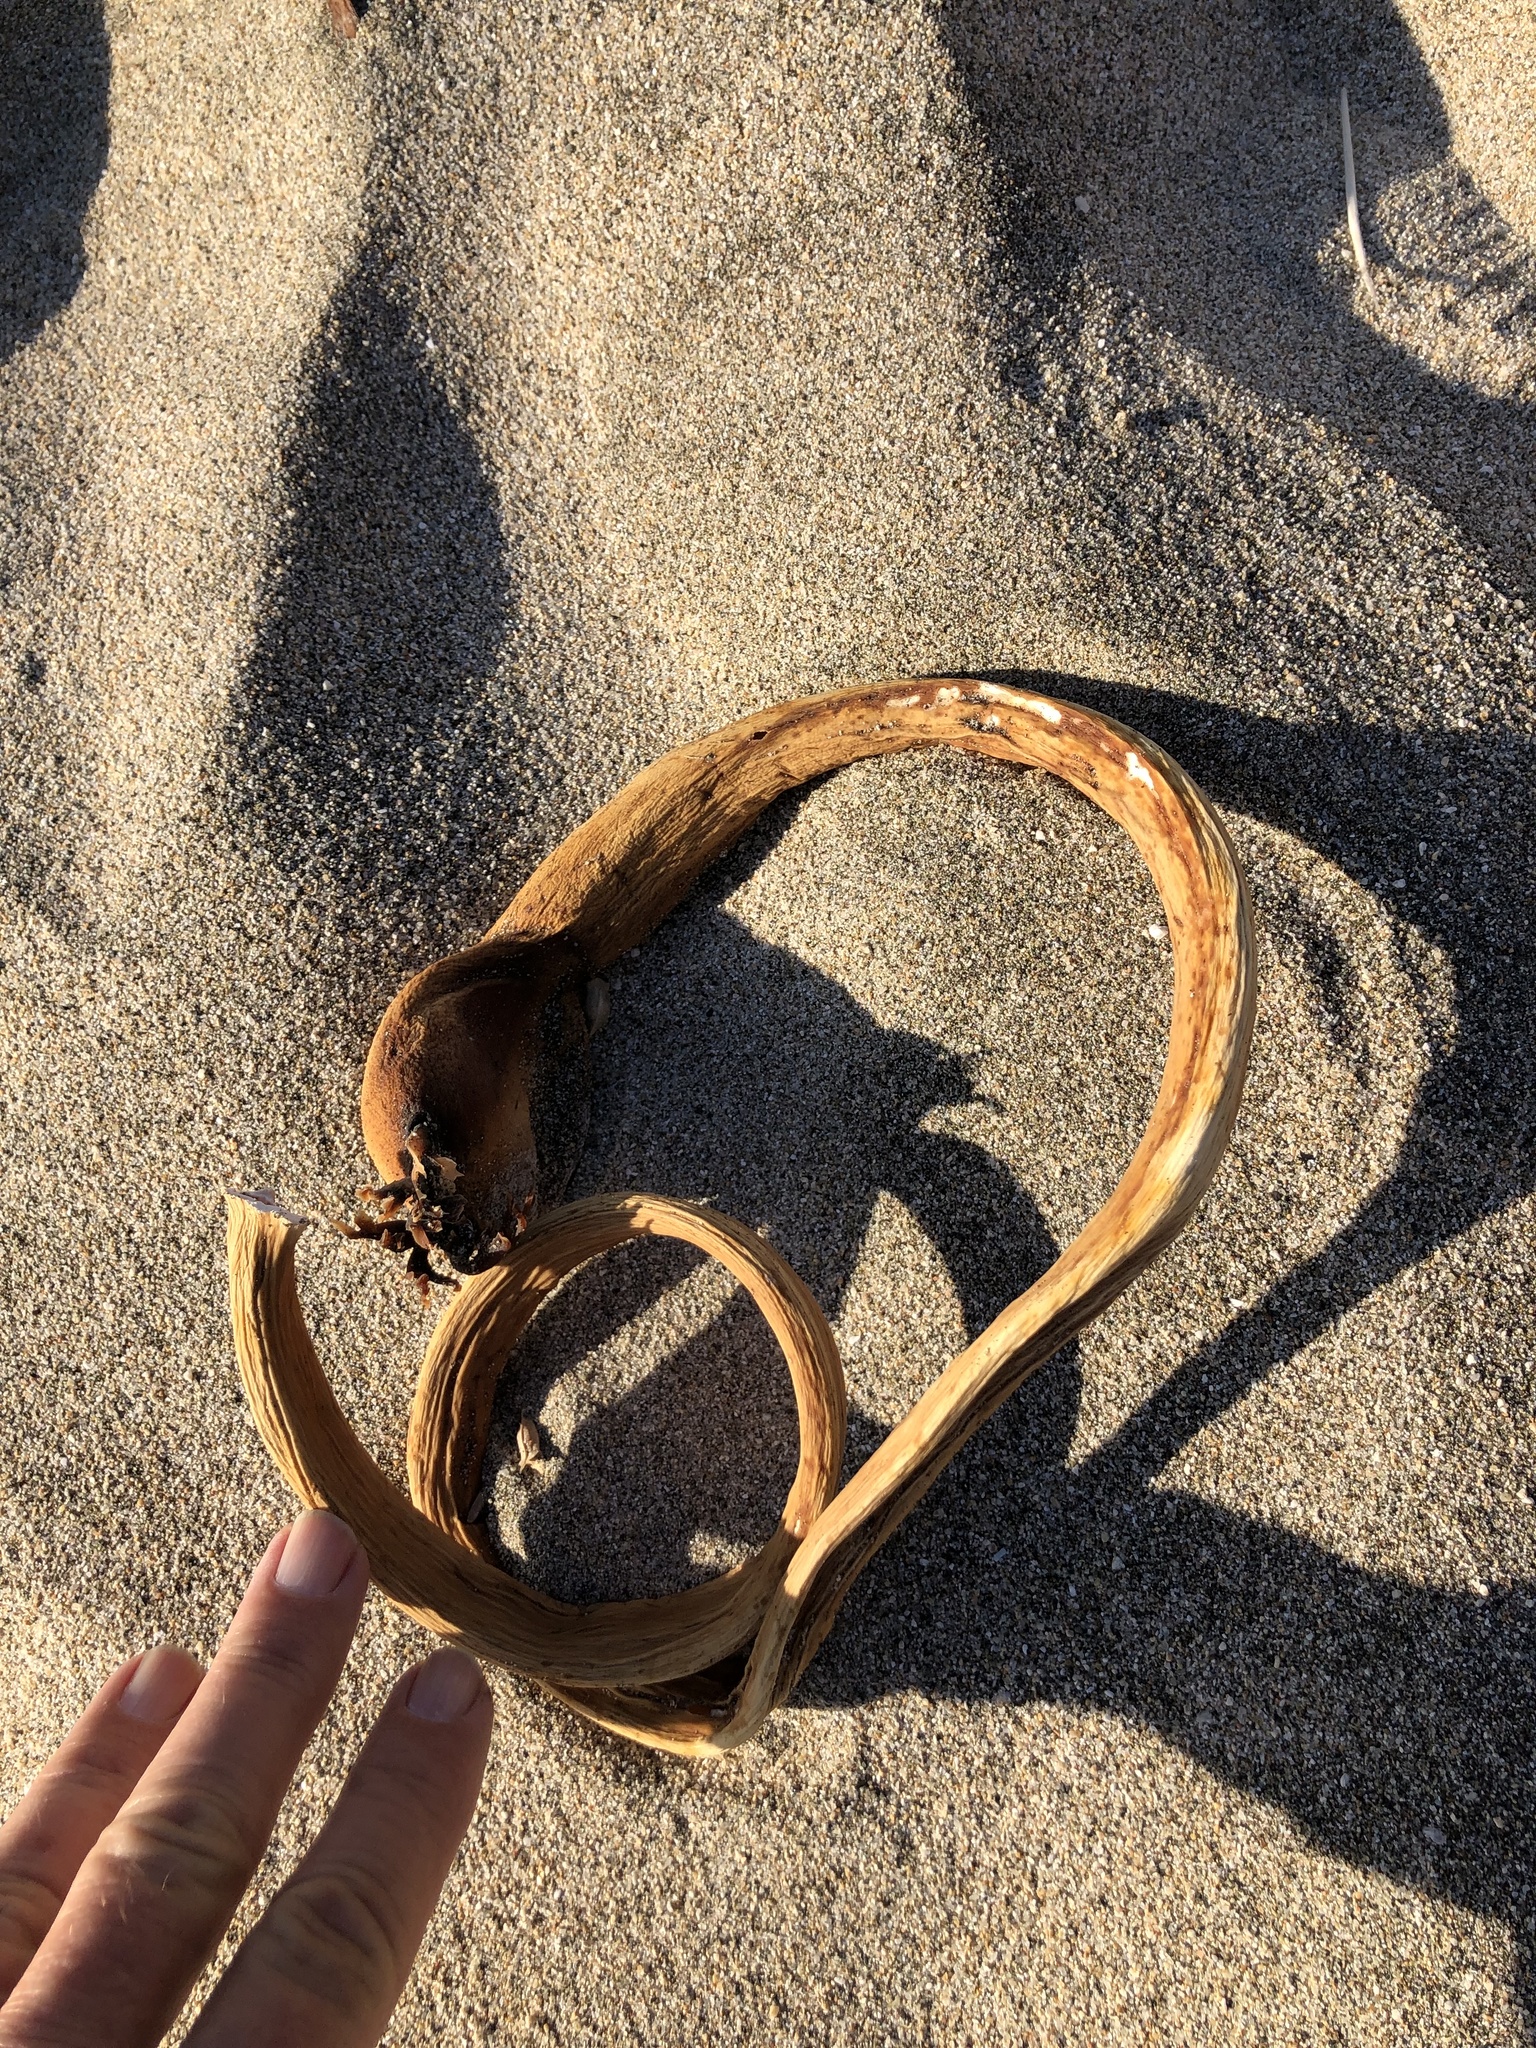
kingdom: Chromista
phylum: Ochrophyta
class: Phaeophyceae
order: Laminariales
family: Laminariaceae
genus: Nereocystis
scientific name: Nereocystis luetkeana
